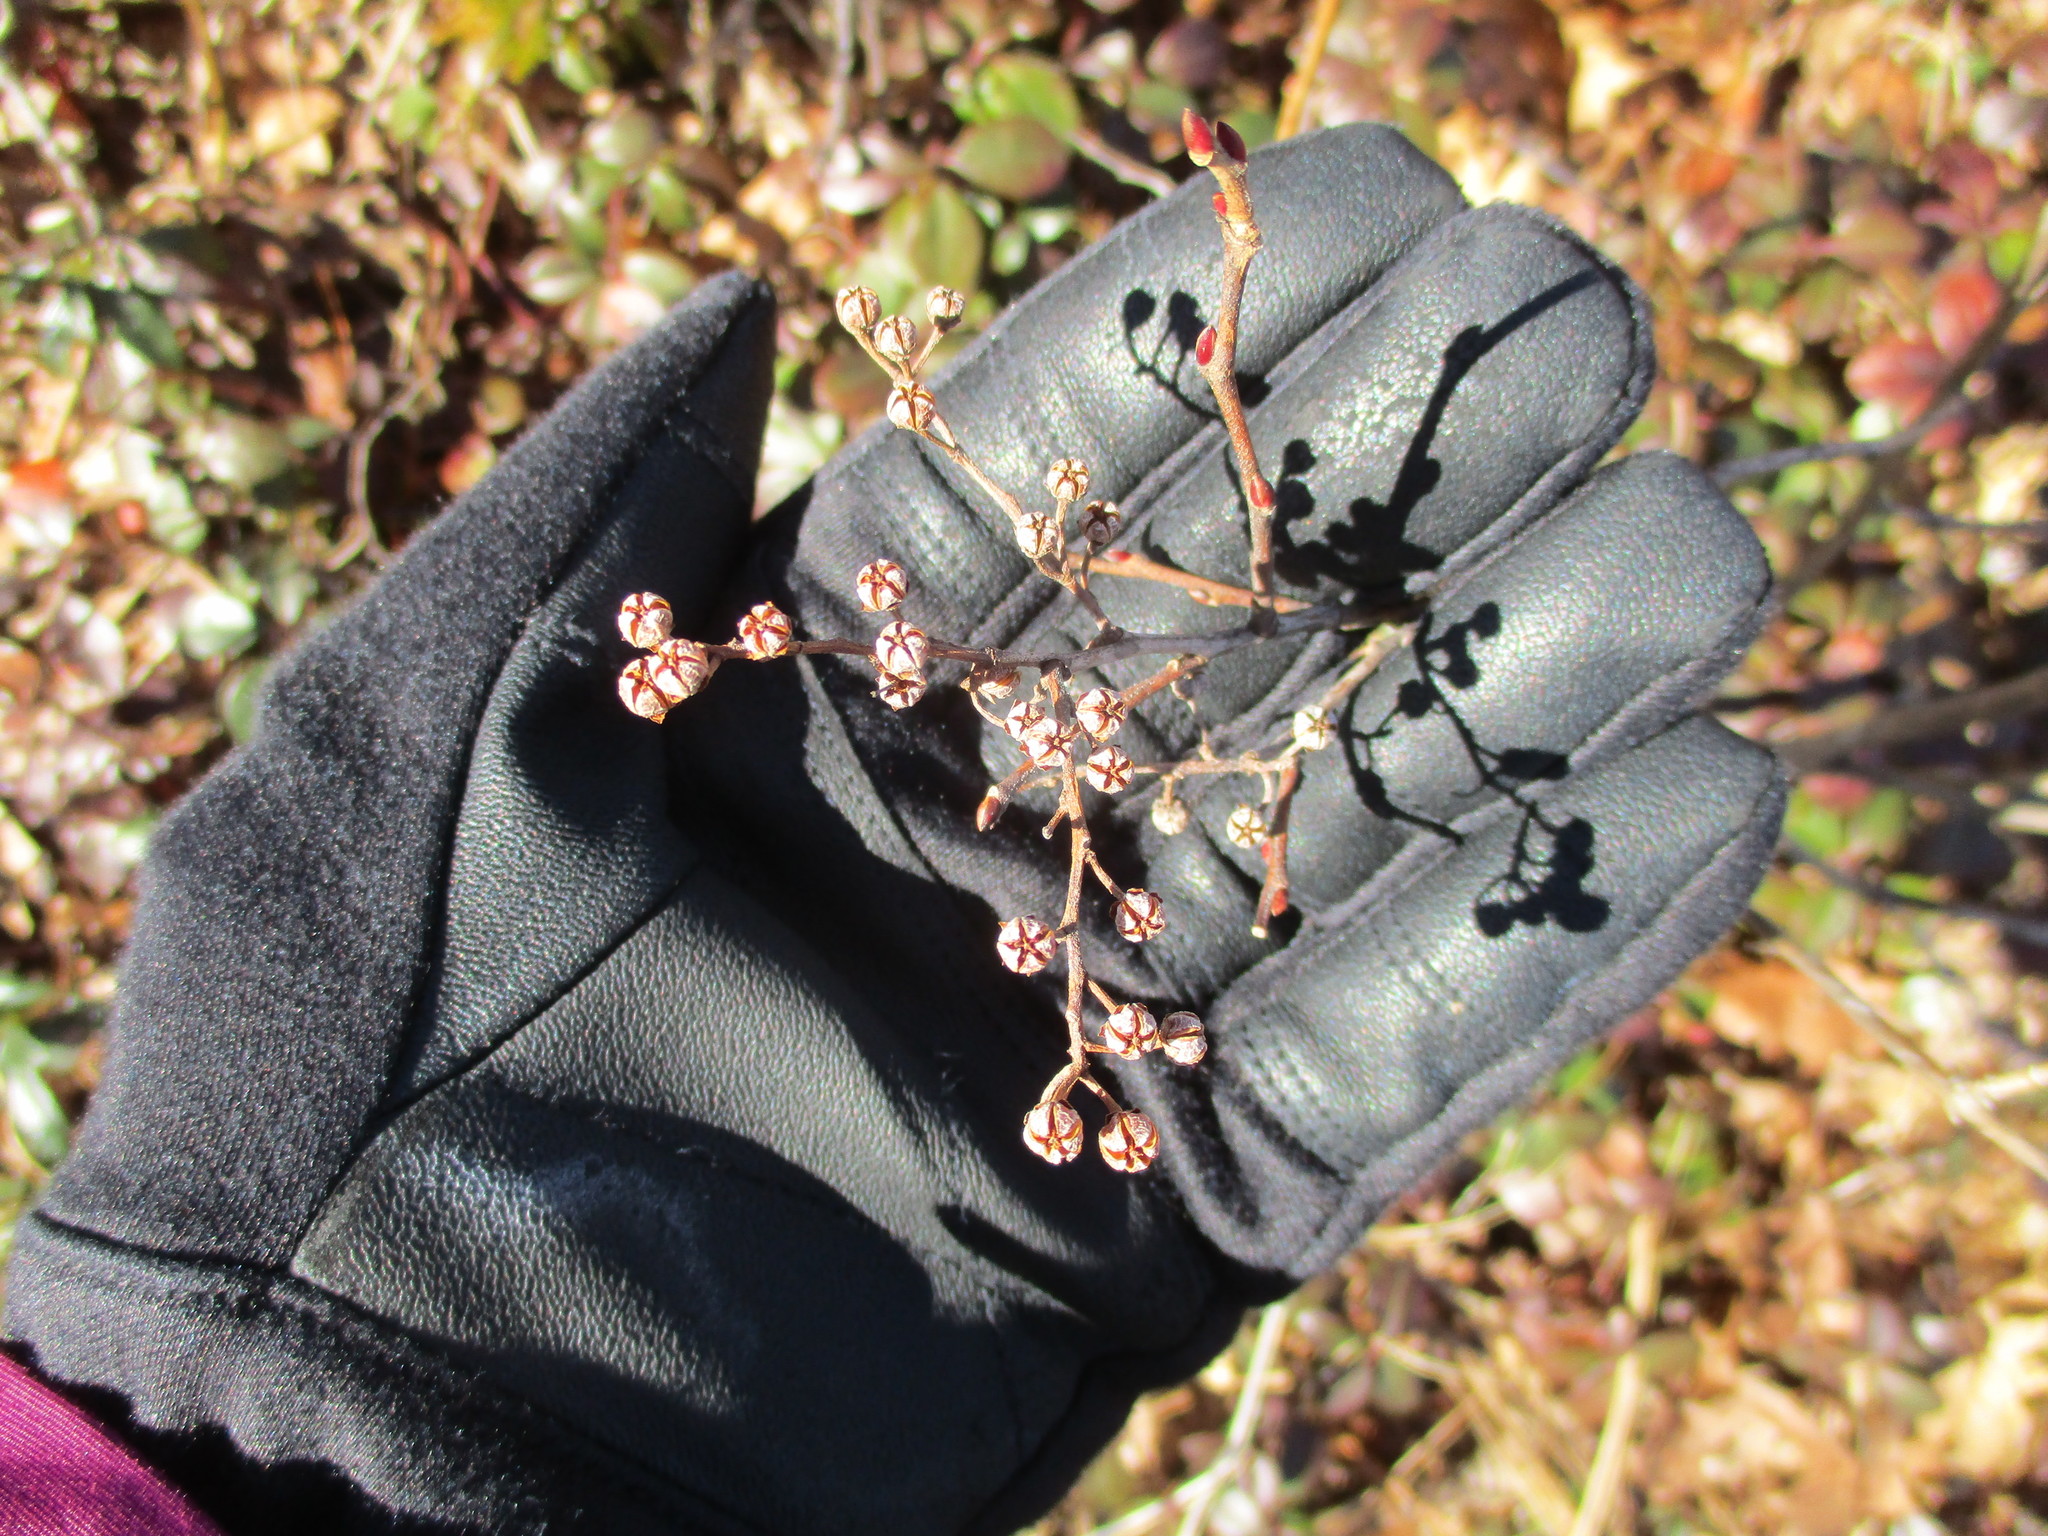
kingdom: Plantae
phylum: Tracheophyta
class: Magnoliopsida
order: Ericales
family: Ericaceae
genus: Lyonia
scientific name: Lyonia ligustrina
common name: Maleberry
